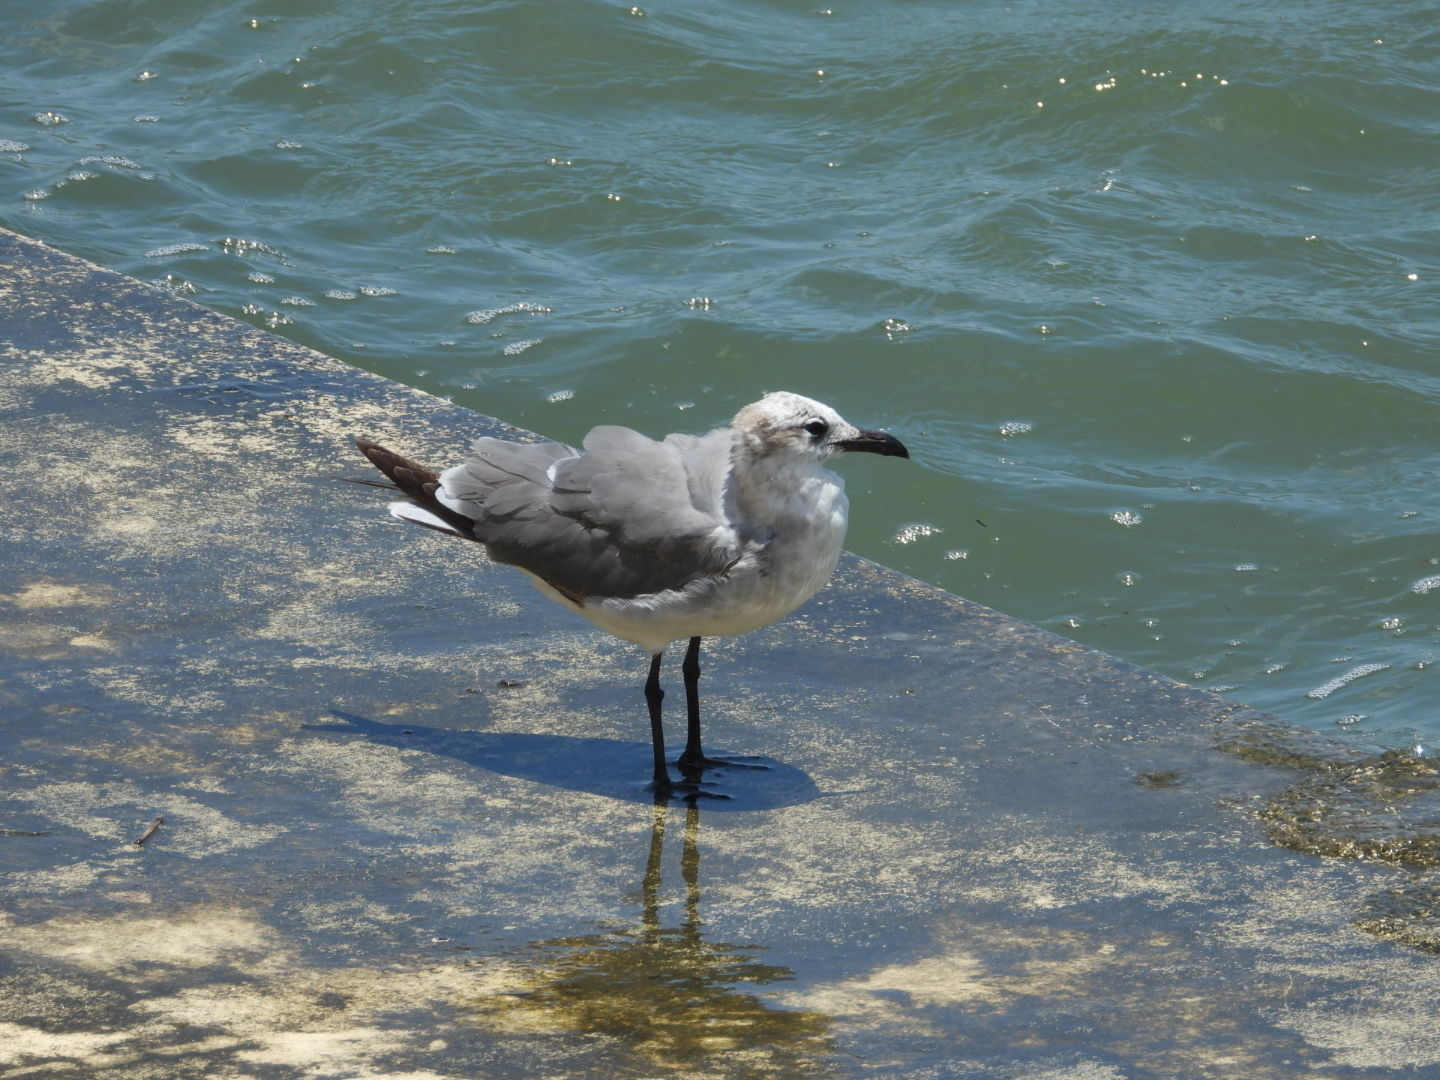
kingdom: Animalia
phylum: Chordata
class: Aves
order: Charadriiformes
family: Laridae
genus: Leucophaeus
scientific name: Leucophaeus atricilla
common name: Laughing gull
